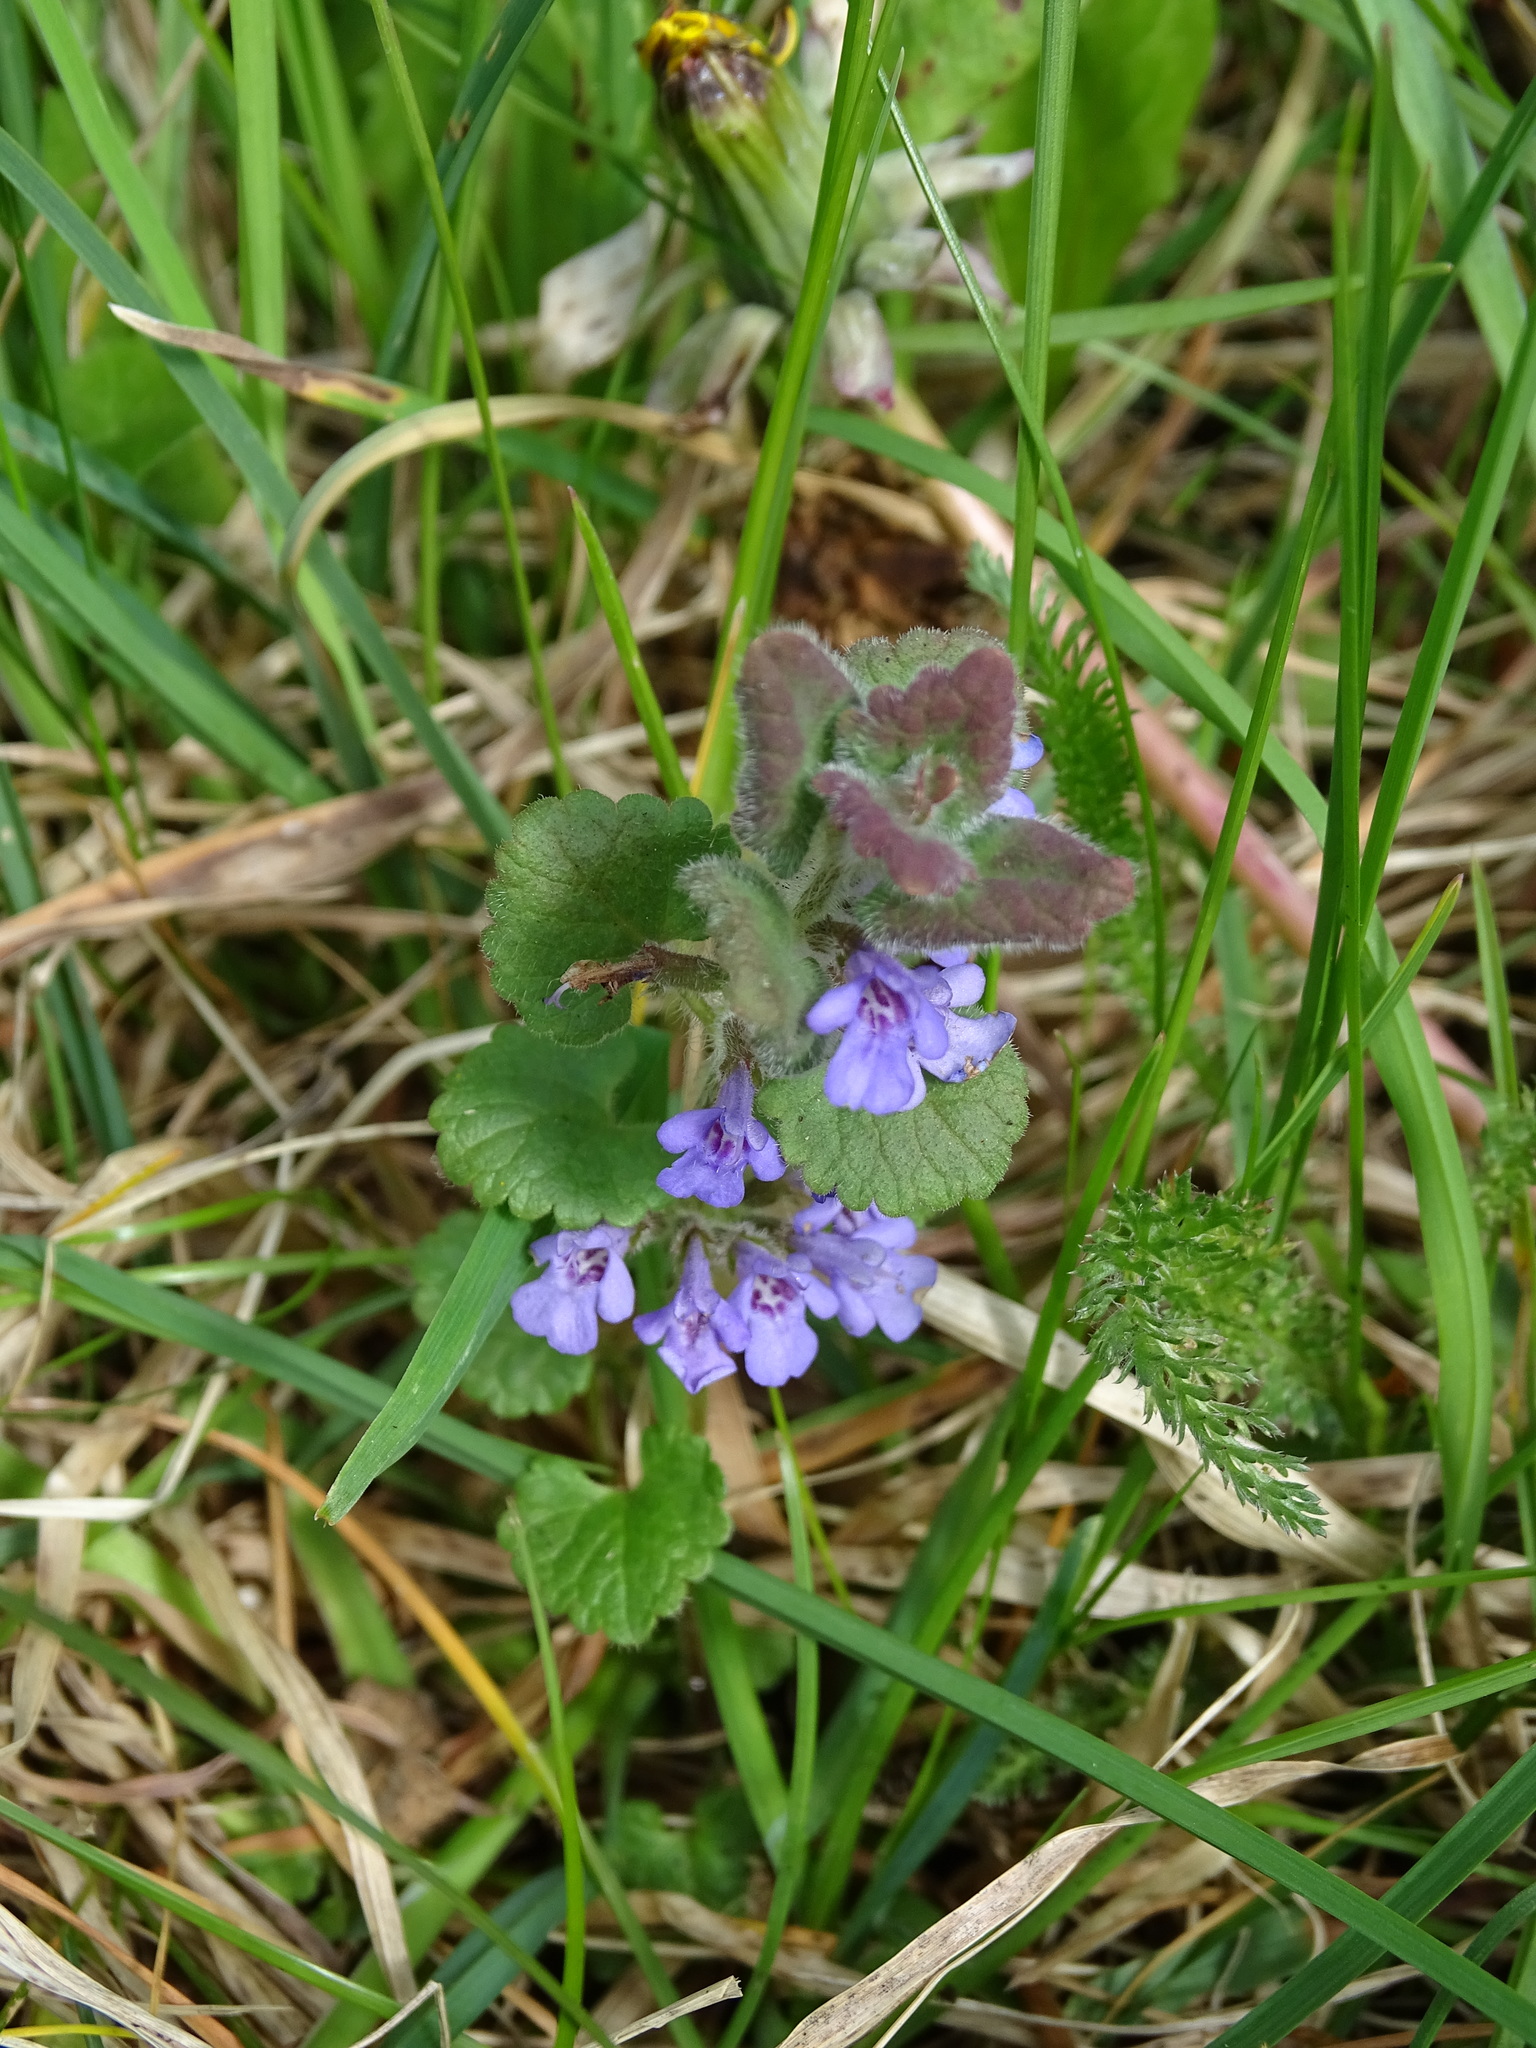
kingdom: Plantae
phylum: Tracheophyta
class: Magnoliopsida
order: Lamiales
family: Lamiaceae
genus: Glechoma
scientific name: Glechoma hederacea
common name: Ground ivy
